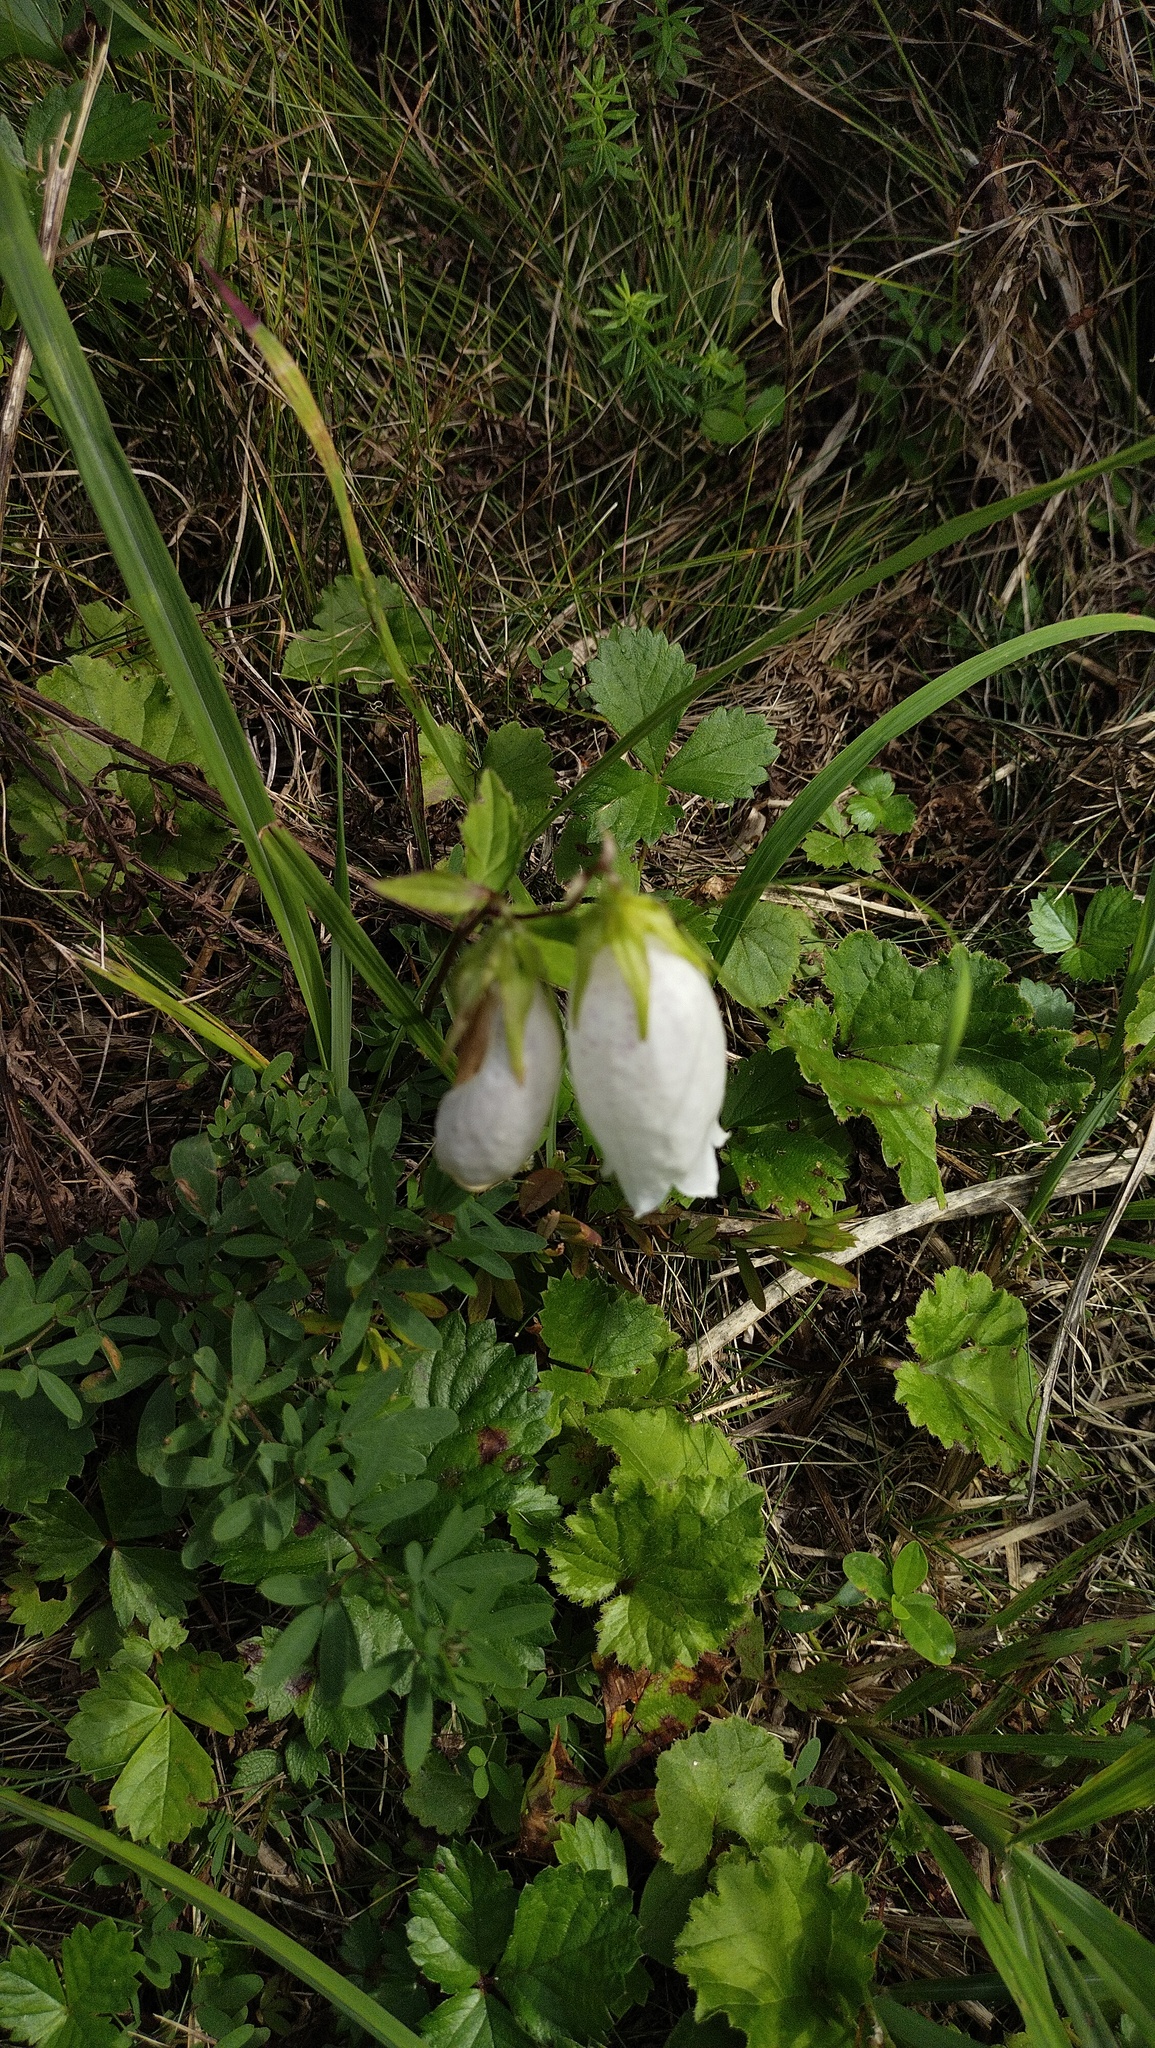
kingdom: Plantae
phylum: Tracheophyta
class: Magnoliopsida
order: Asterales
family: Campanulaceae
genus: Campanula
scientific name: Campanula punctata
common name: Spotted bellflower
